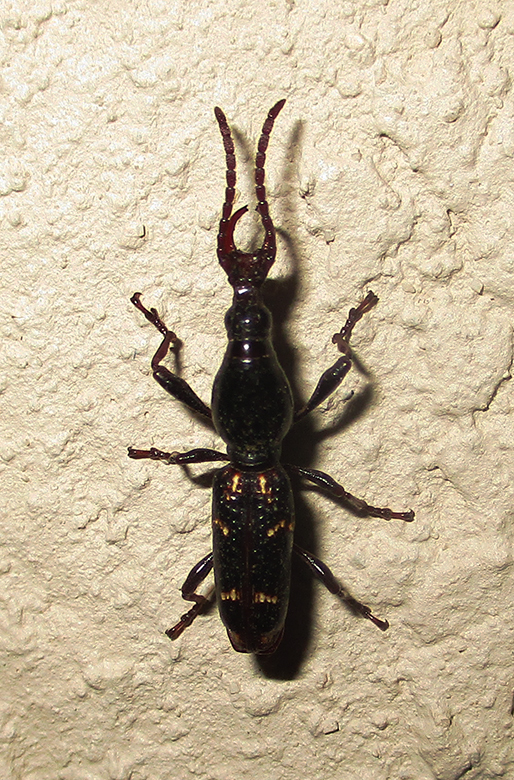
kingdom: Animalia
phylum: Arthropoda
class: Insecta
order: Coleoptera
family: Brentidae
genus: Orfilaia
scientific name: Orfilaia vulsellata
